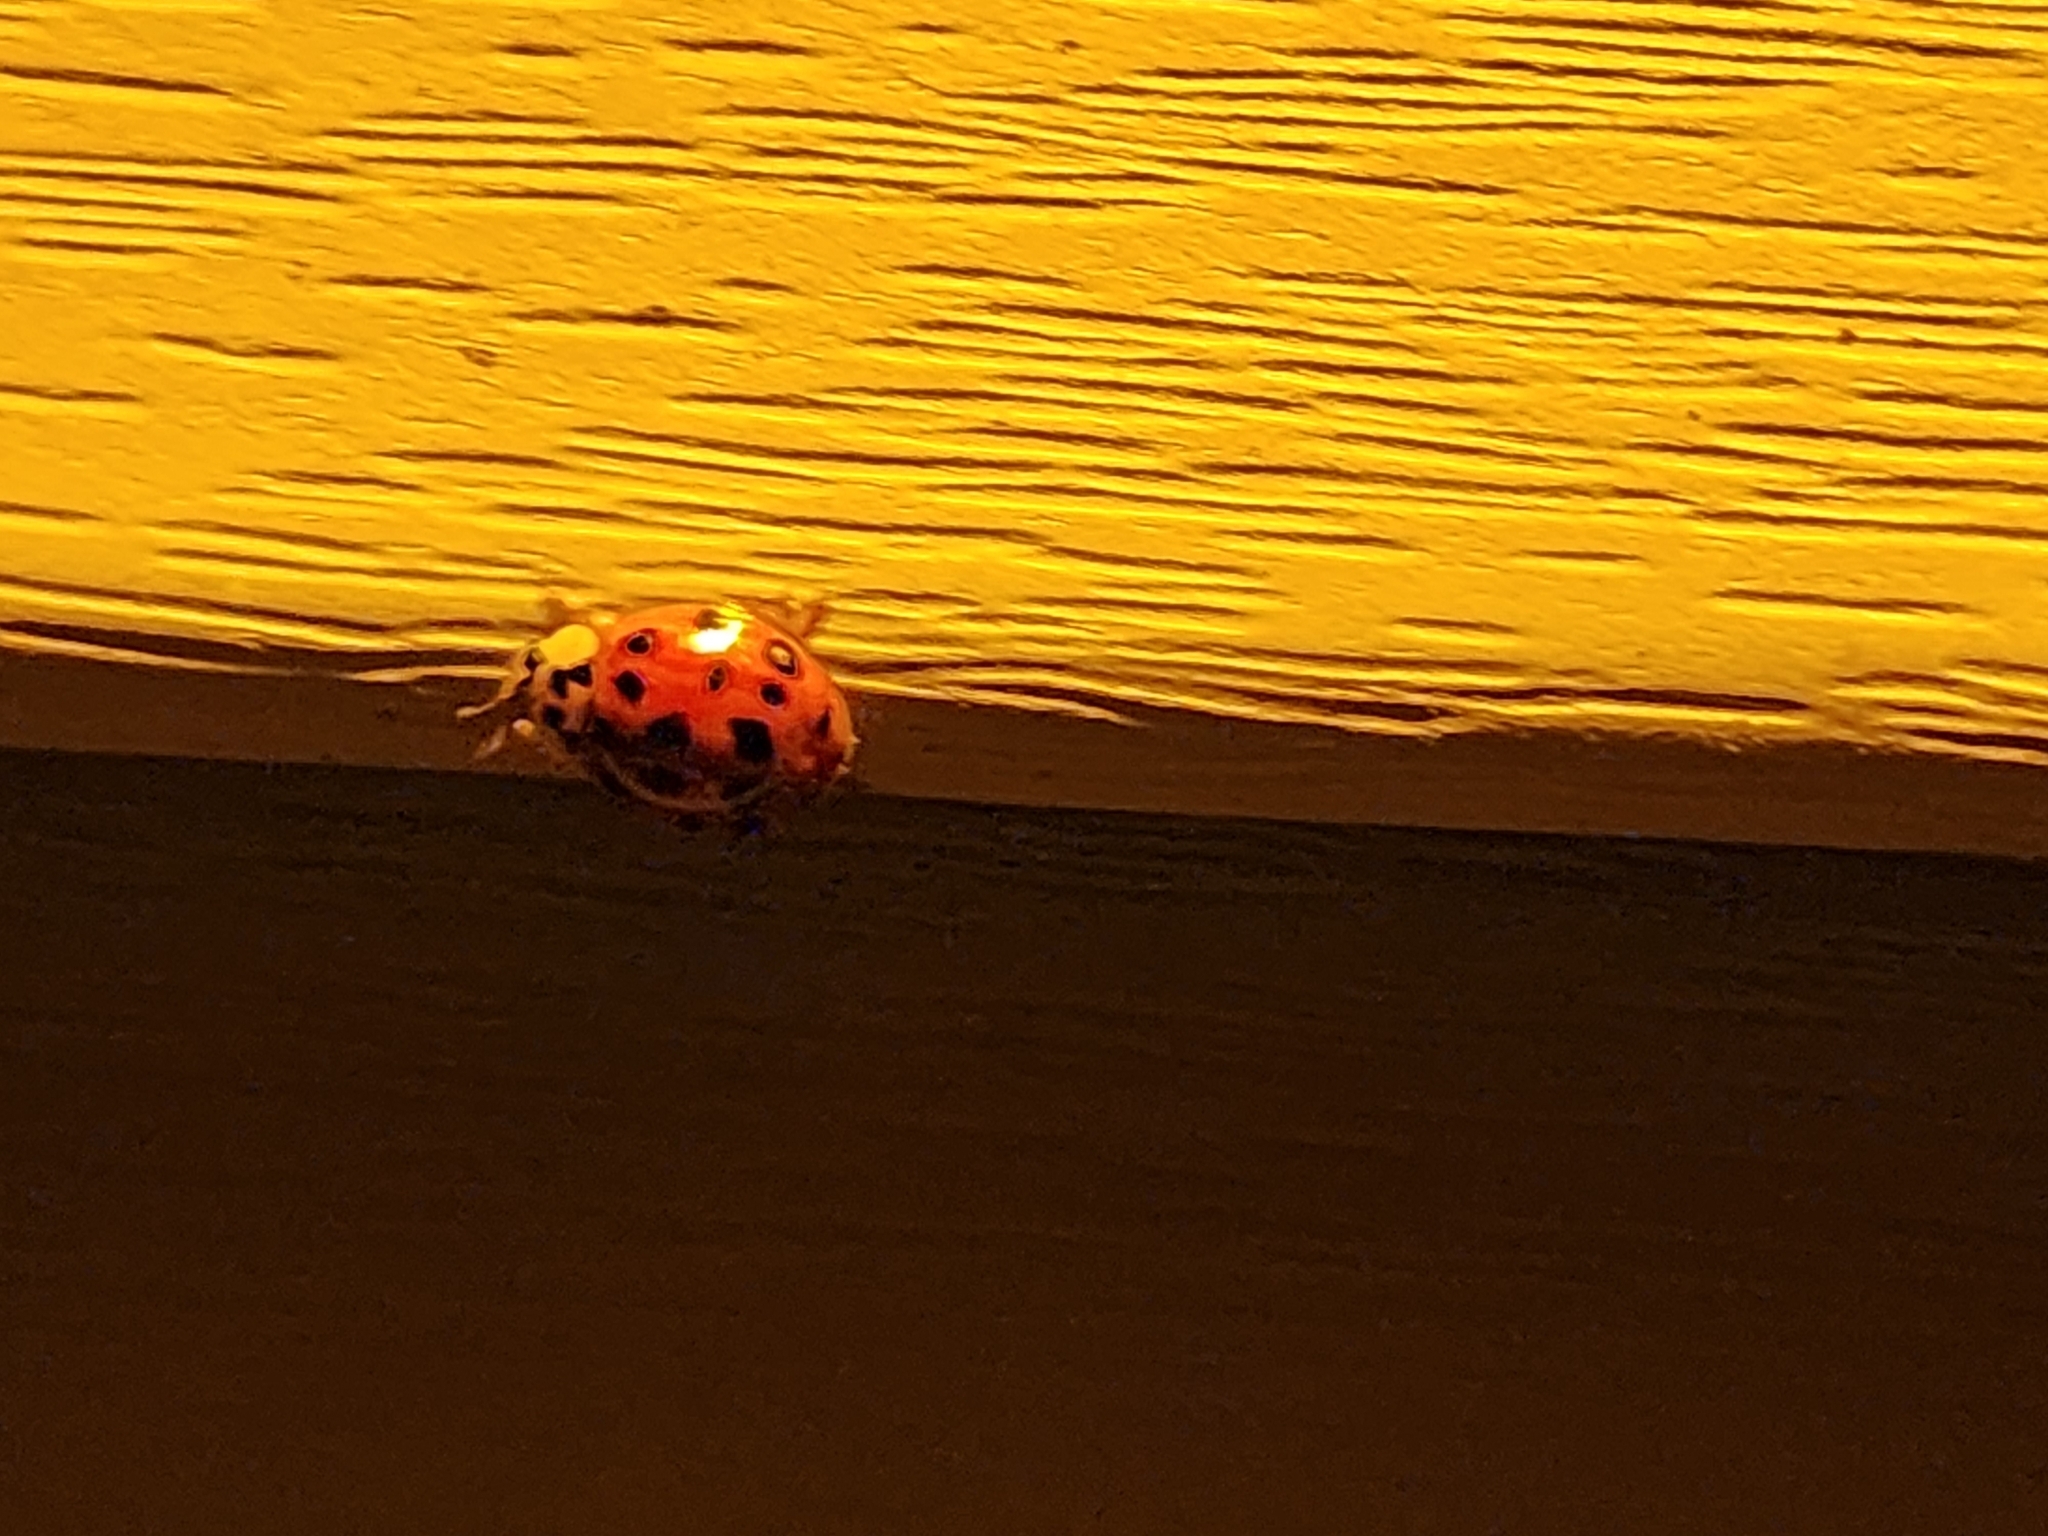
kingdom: Animalia
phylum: Arthropoda
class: Insecta
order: Coleoptera
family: Coccinellidae
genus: Harmonia
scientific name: Harmonia axyridis
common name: Harlequin ladybird
